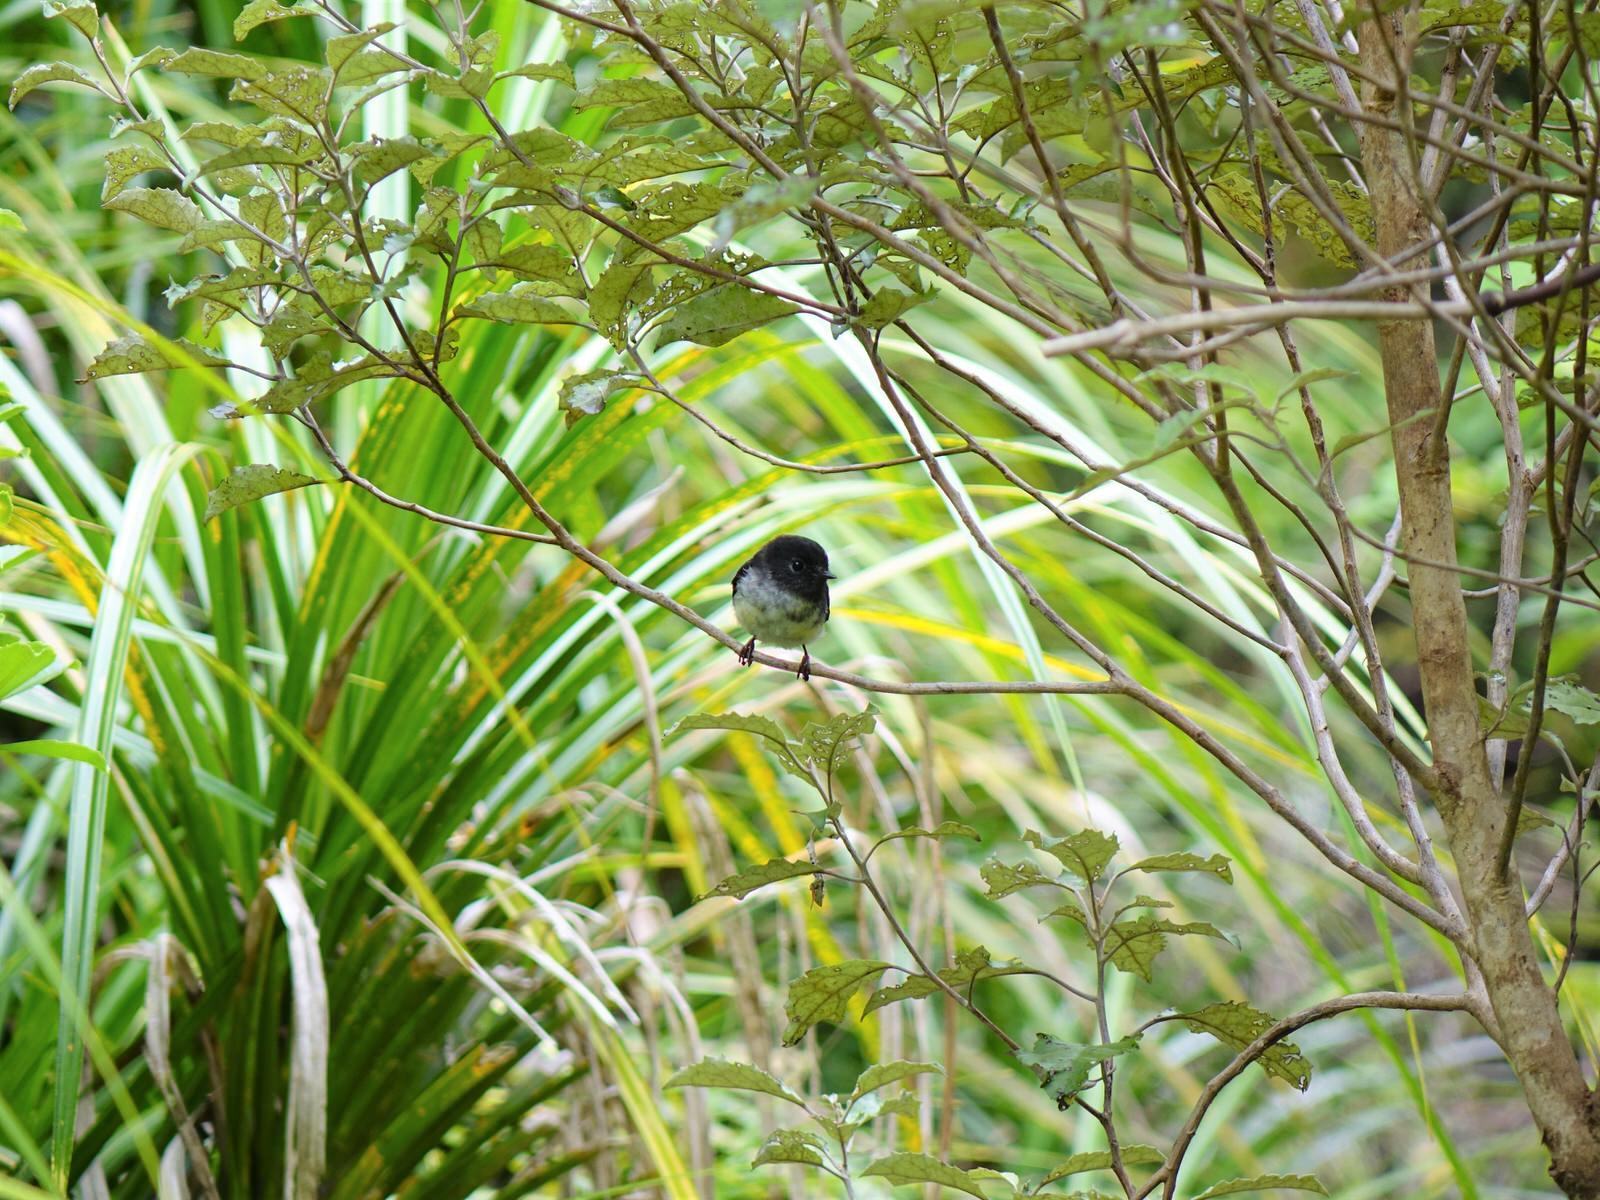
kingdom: Animalia
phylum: Chordata
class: Aves
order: Passeriformes
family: Petroicidae
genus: Petroica
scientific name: Petroica macrocephala
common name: Tomtit
